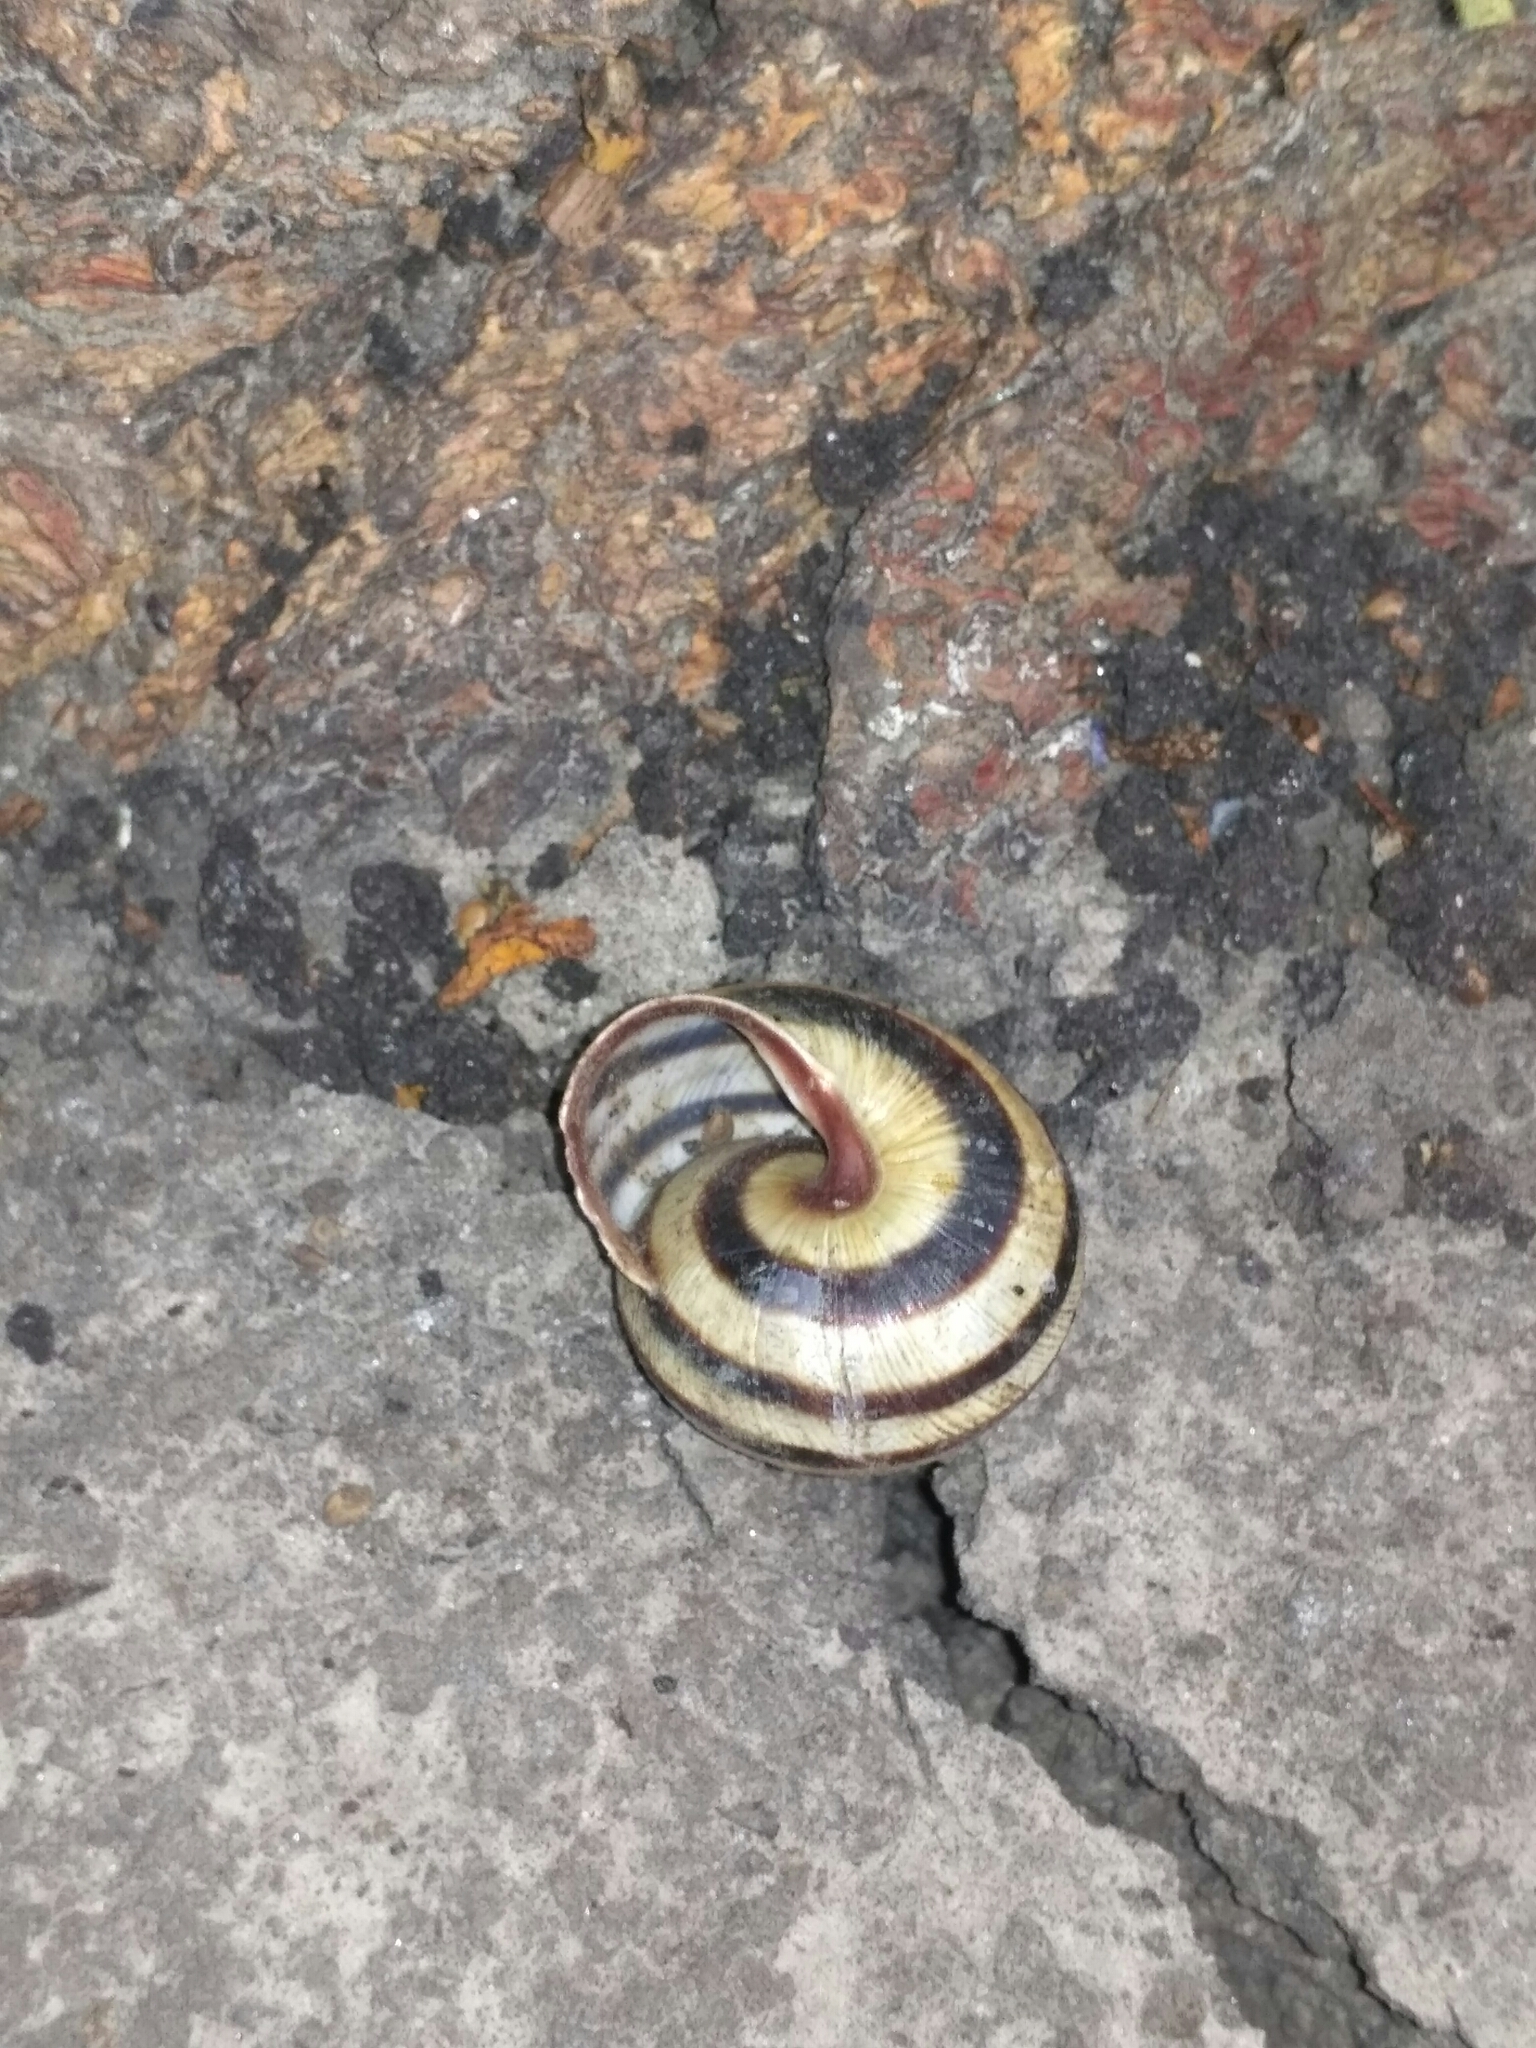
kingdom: Animalia
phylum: Mollusca
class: Gastropoda
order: Stylommatophora
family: Helicidae
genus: Caucasotachea
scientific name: Caucasotachea vindobonensis
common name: European helicid land snail
